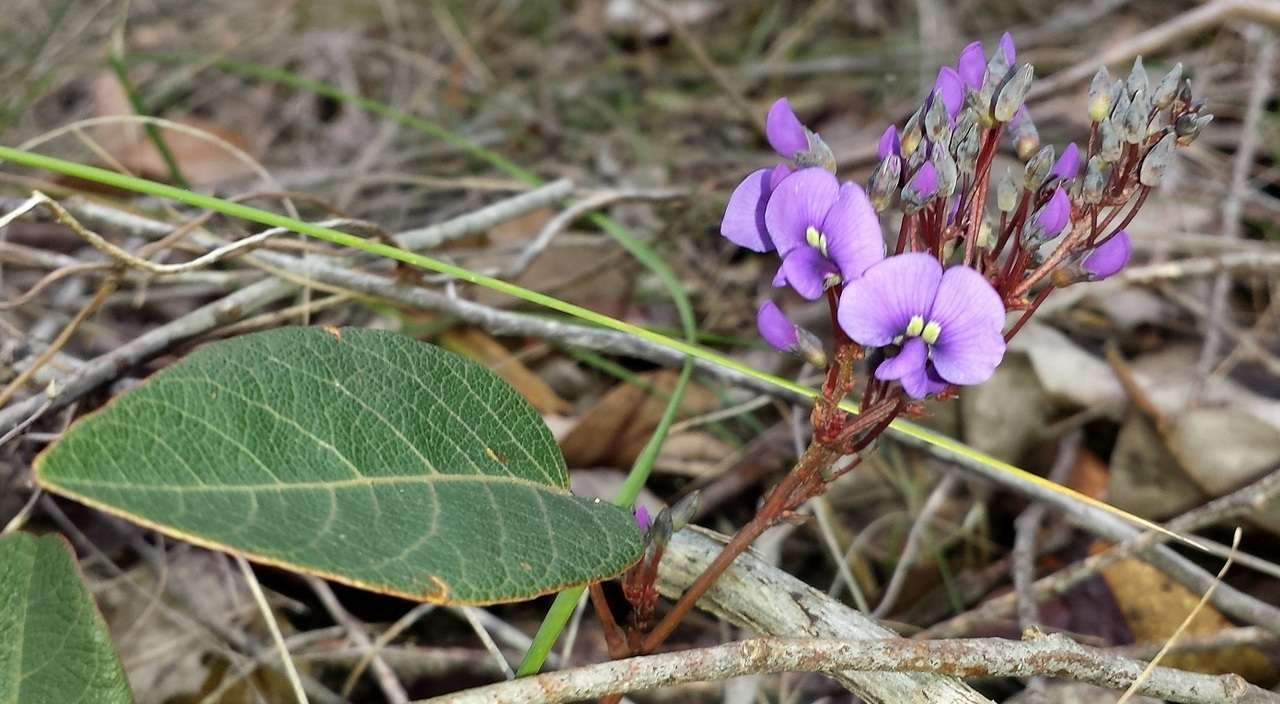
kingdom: Plantae
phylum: Tracheophyta
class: Magnoliopsida
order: Fabales
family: Fabaceae
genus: Hardenbergia
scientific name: Hardenbergia violacea
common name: Coral-pea
